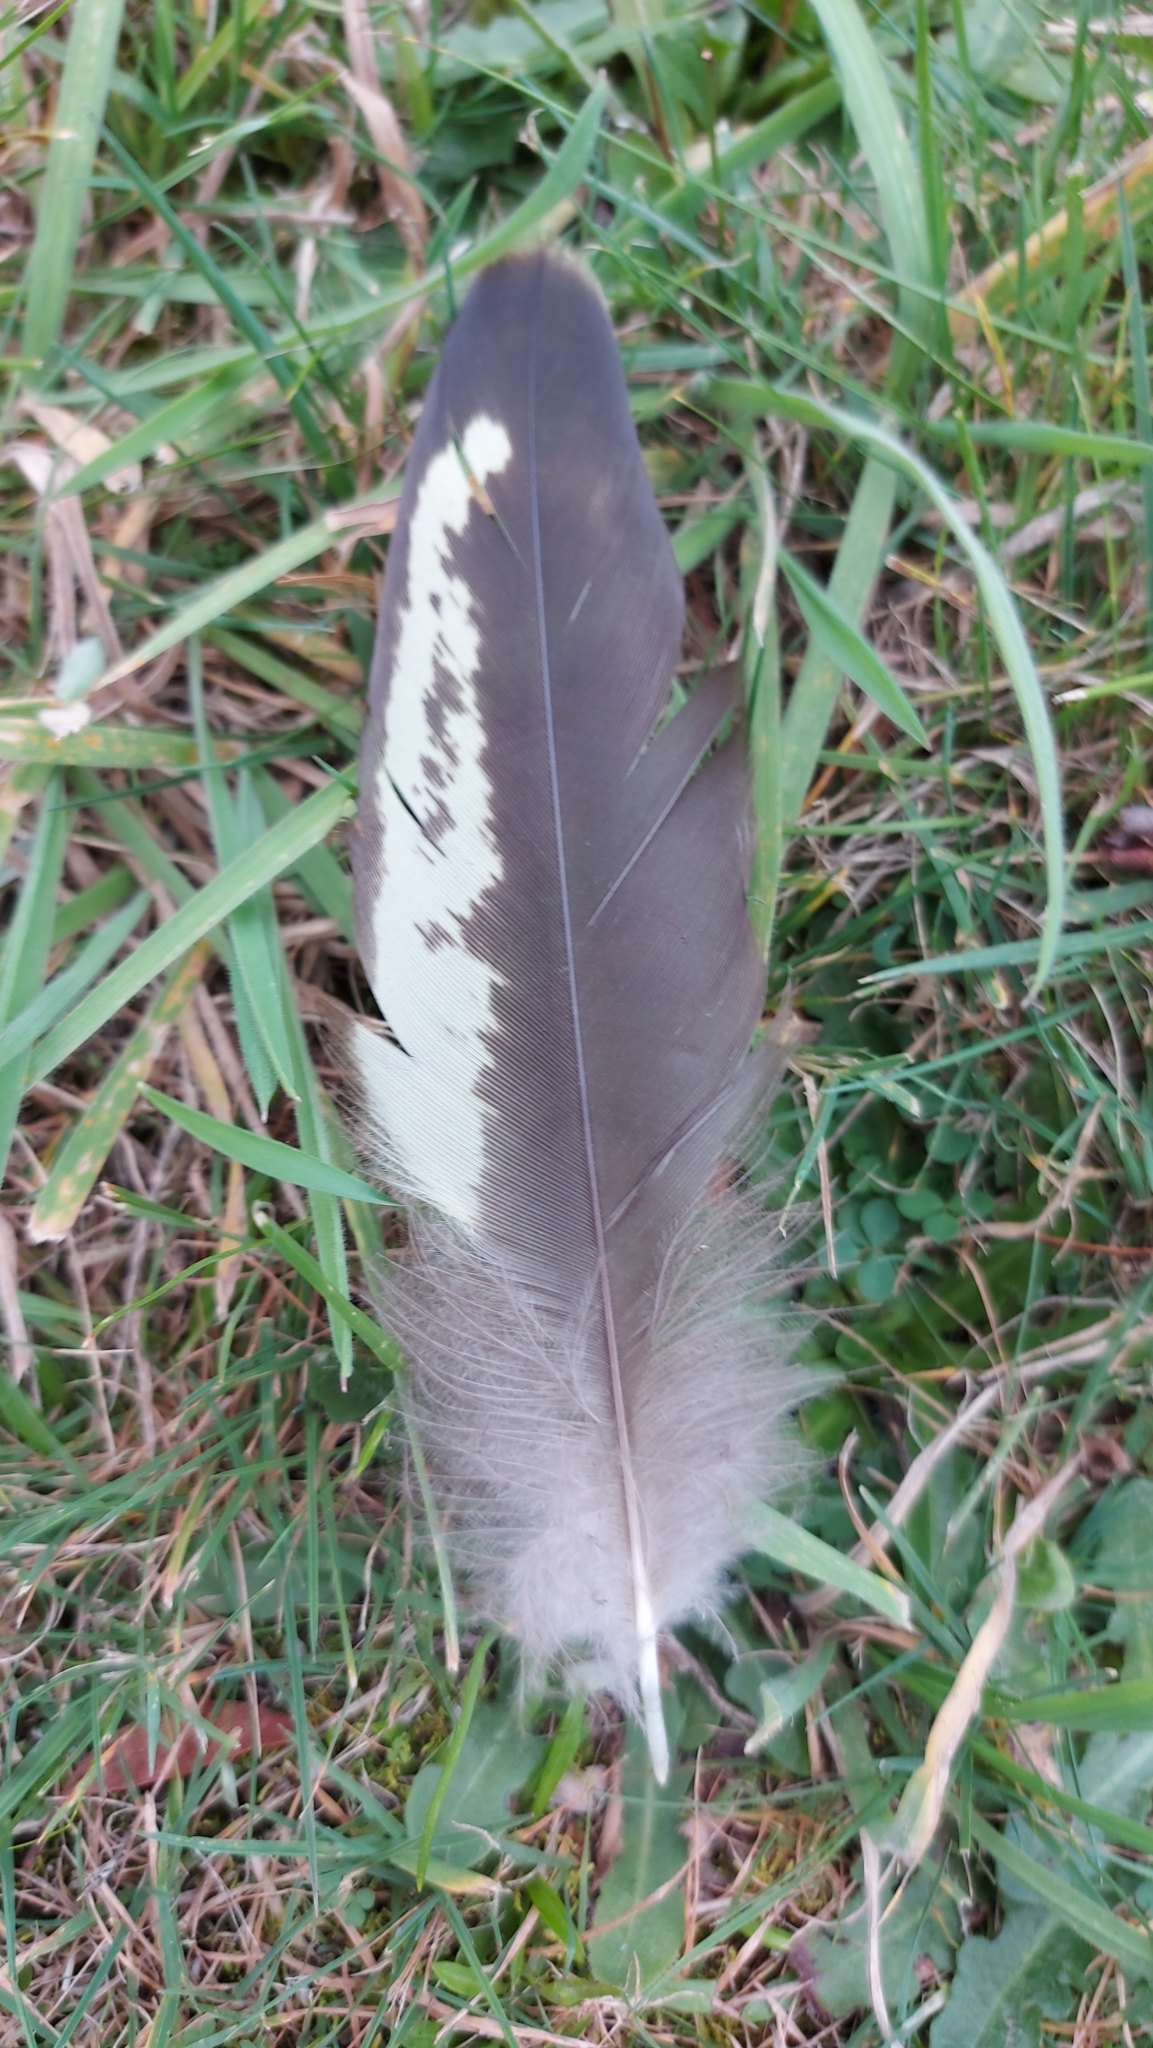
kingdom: Animalia
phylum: Chordata
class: Aves
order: Psittaciformes
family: Cacatuidae
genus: Zanda
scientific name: Zanda funerea
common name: Yellow-tailed black-cockatoo
